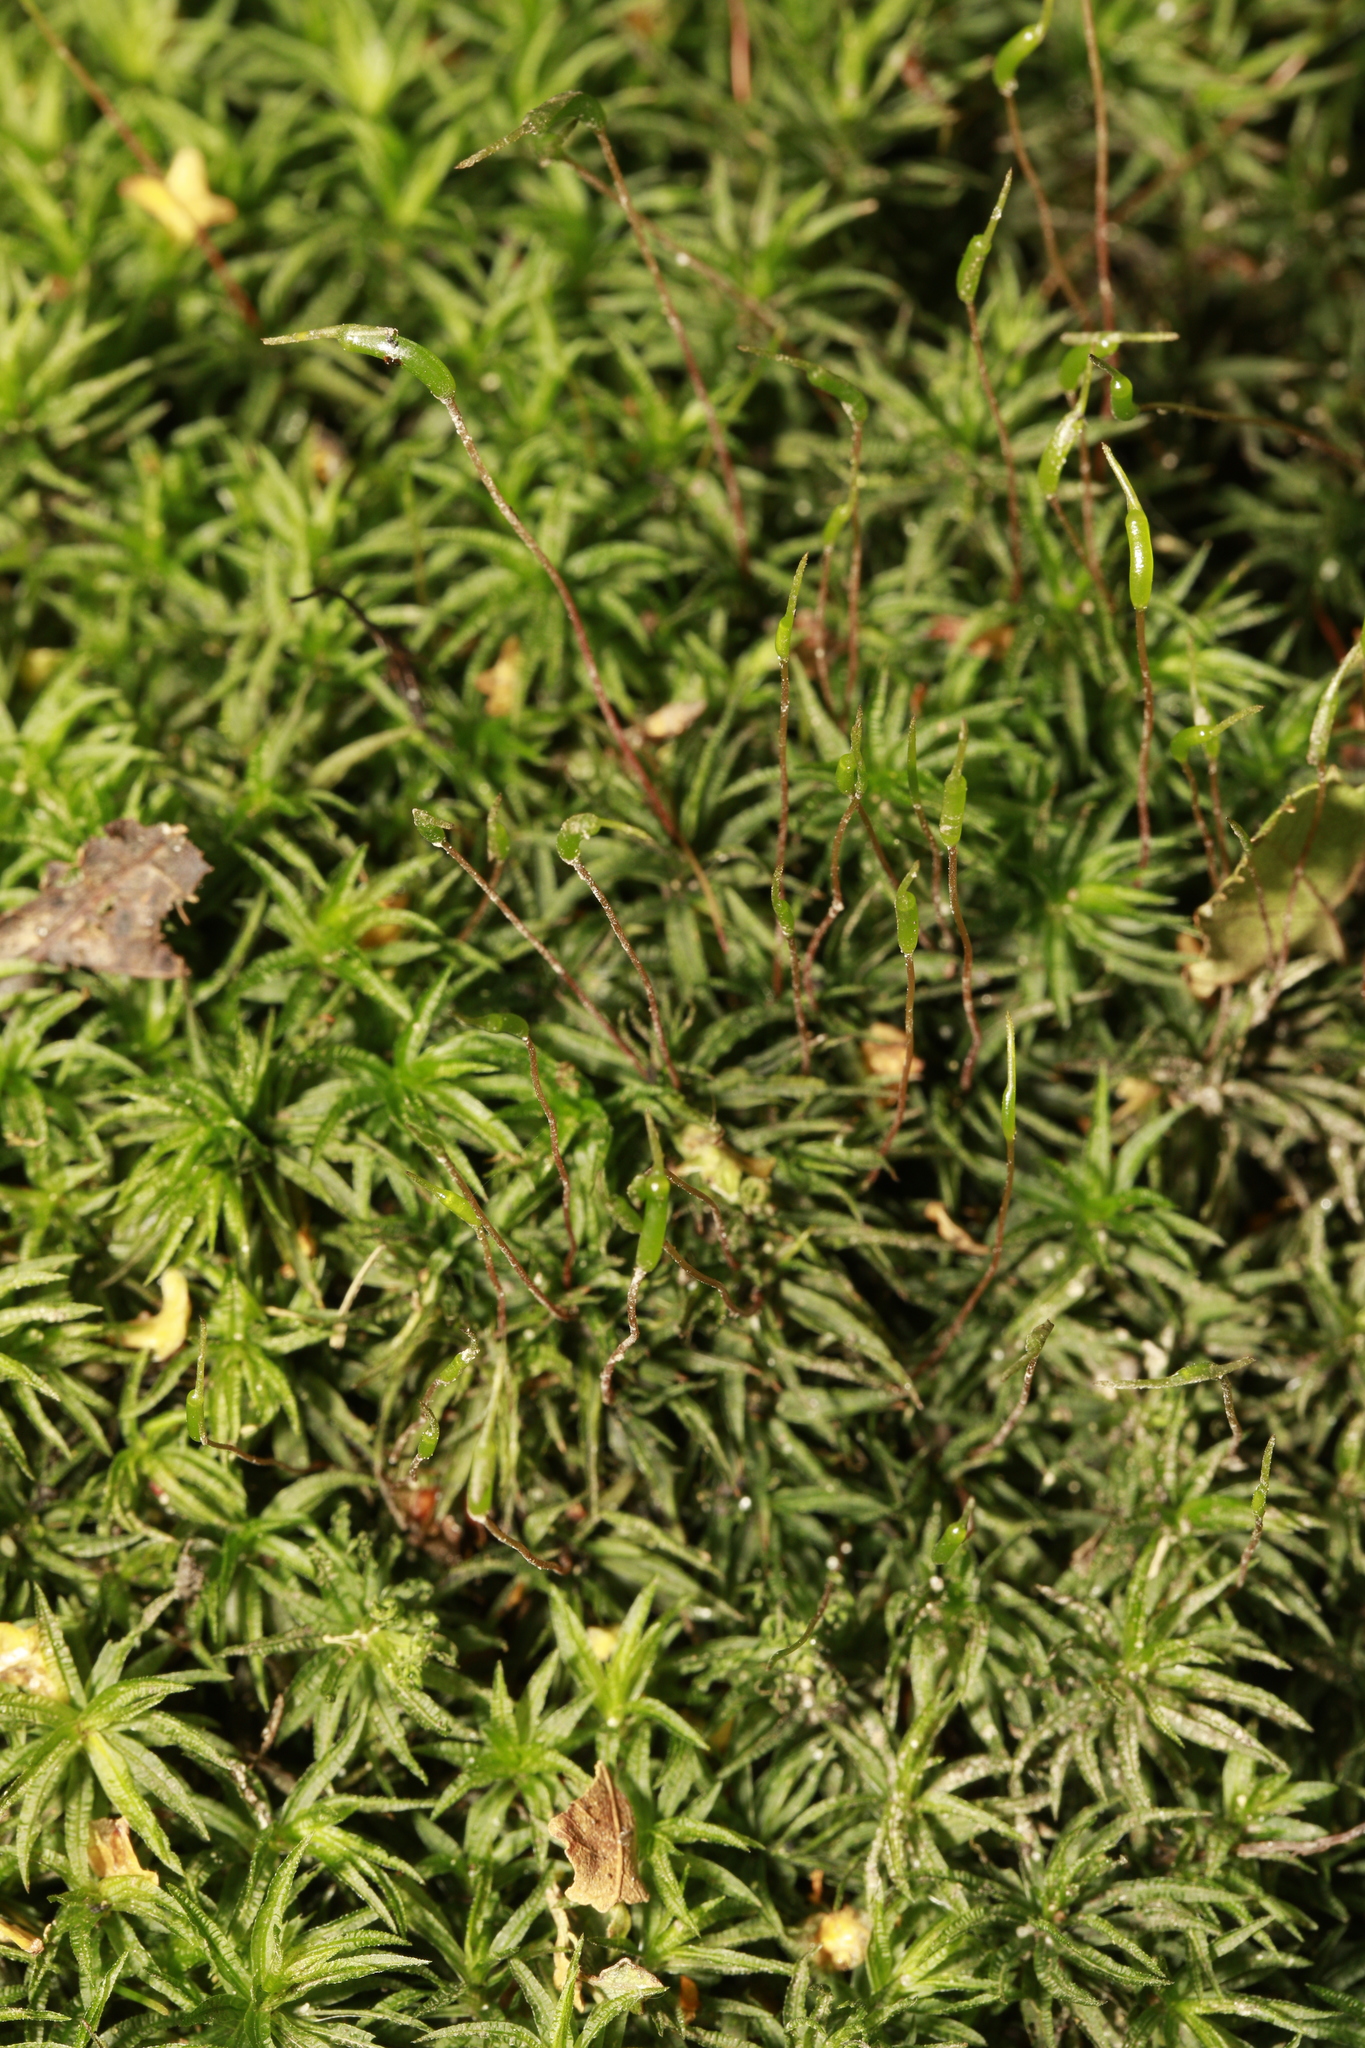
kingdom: Plantae
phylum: Bryophyta
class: Polytrichopsida
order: Polytrichales
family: Polytrichaceae
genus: Atrichum
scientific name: Atrichum undulatum
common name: Common smoothcap
